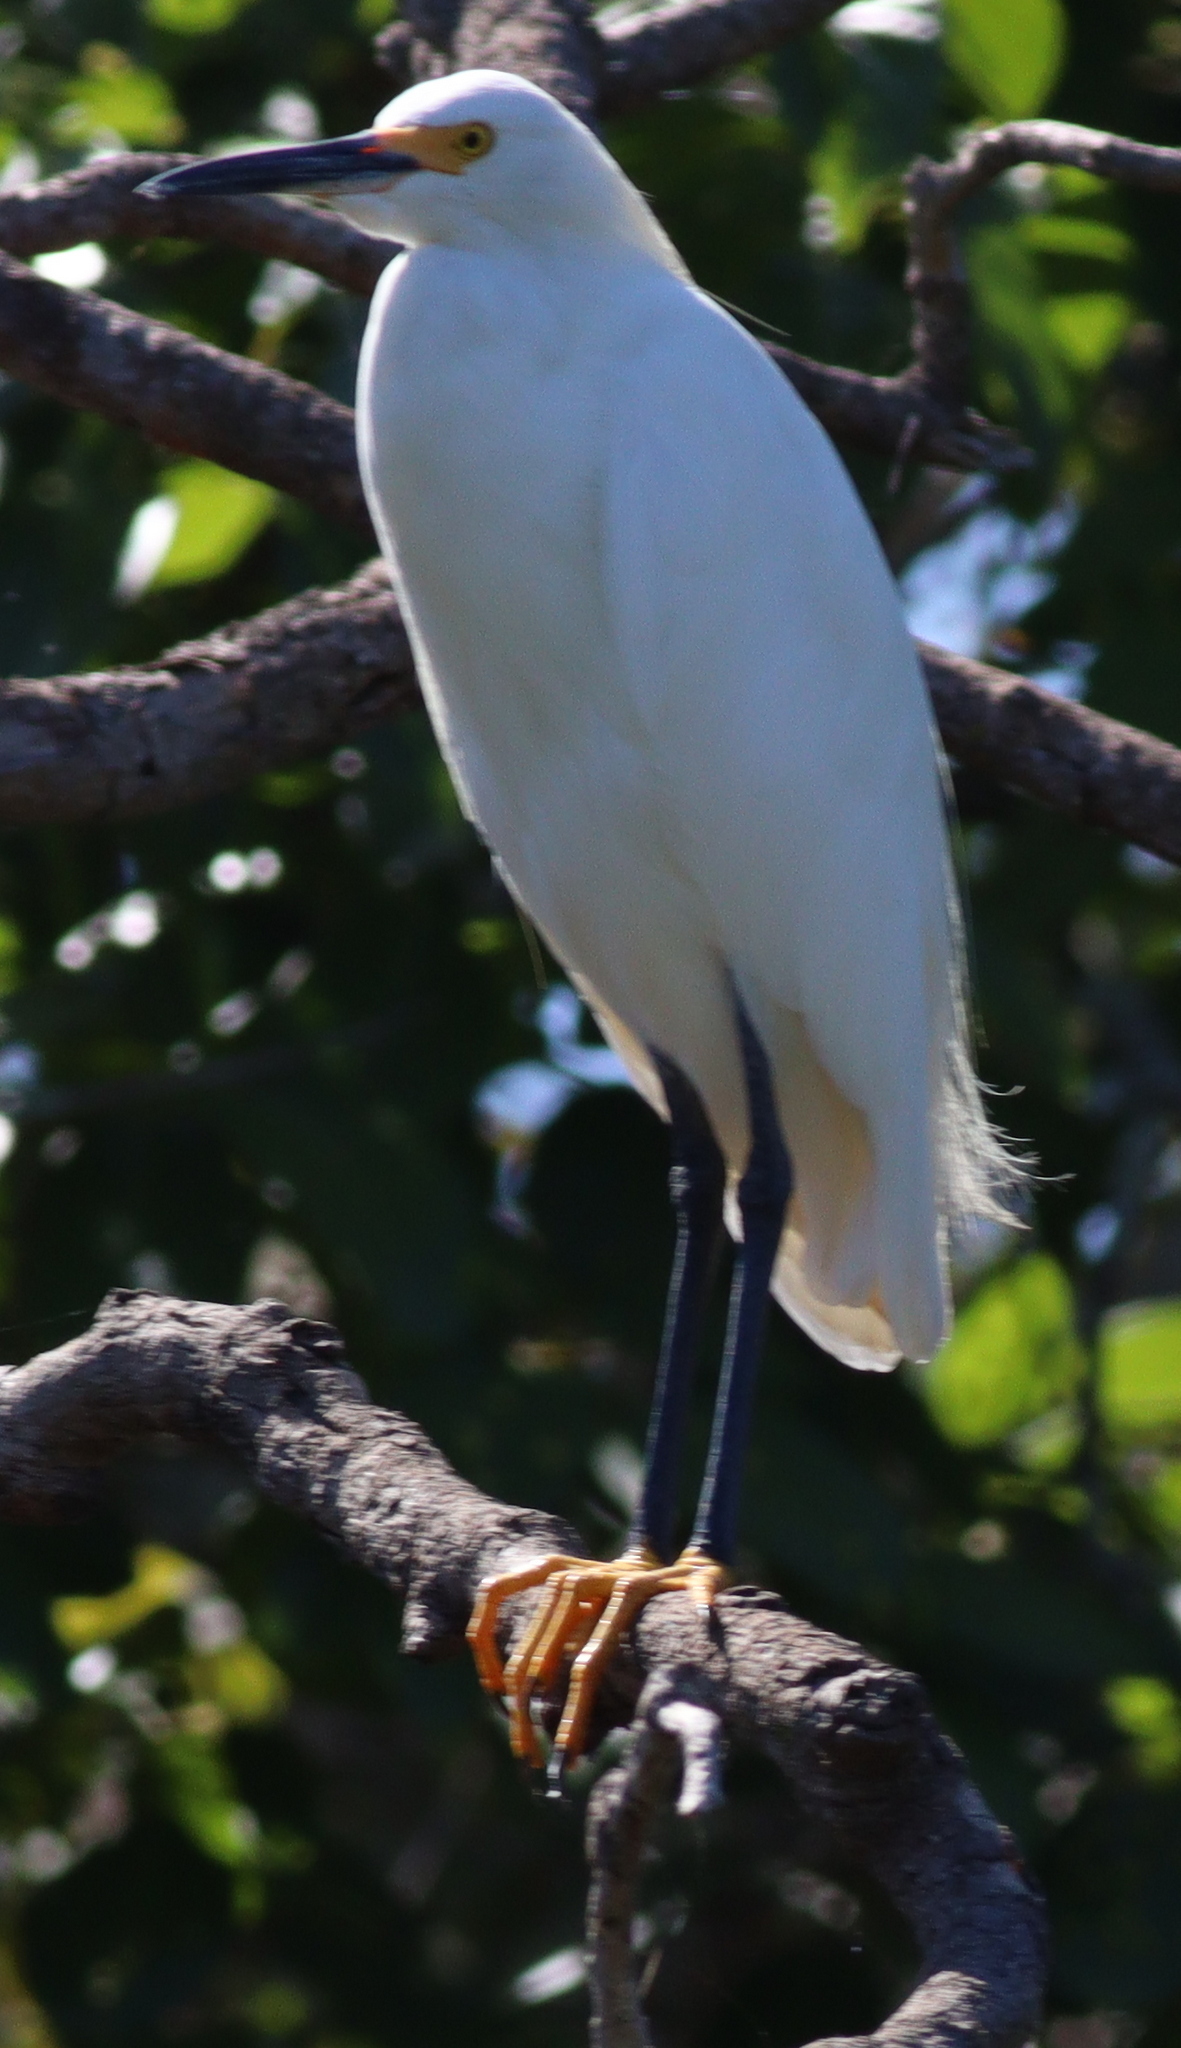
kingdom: Animalia
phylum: Chordata
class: Aves
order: Pelecaniformes
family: Ardeidae
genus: Egretta
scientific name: Egretta thula
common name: Snowy egret
